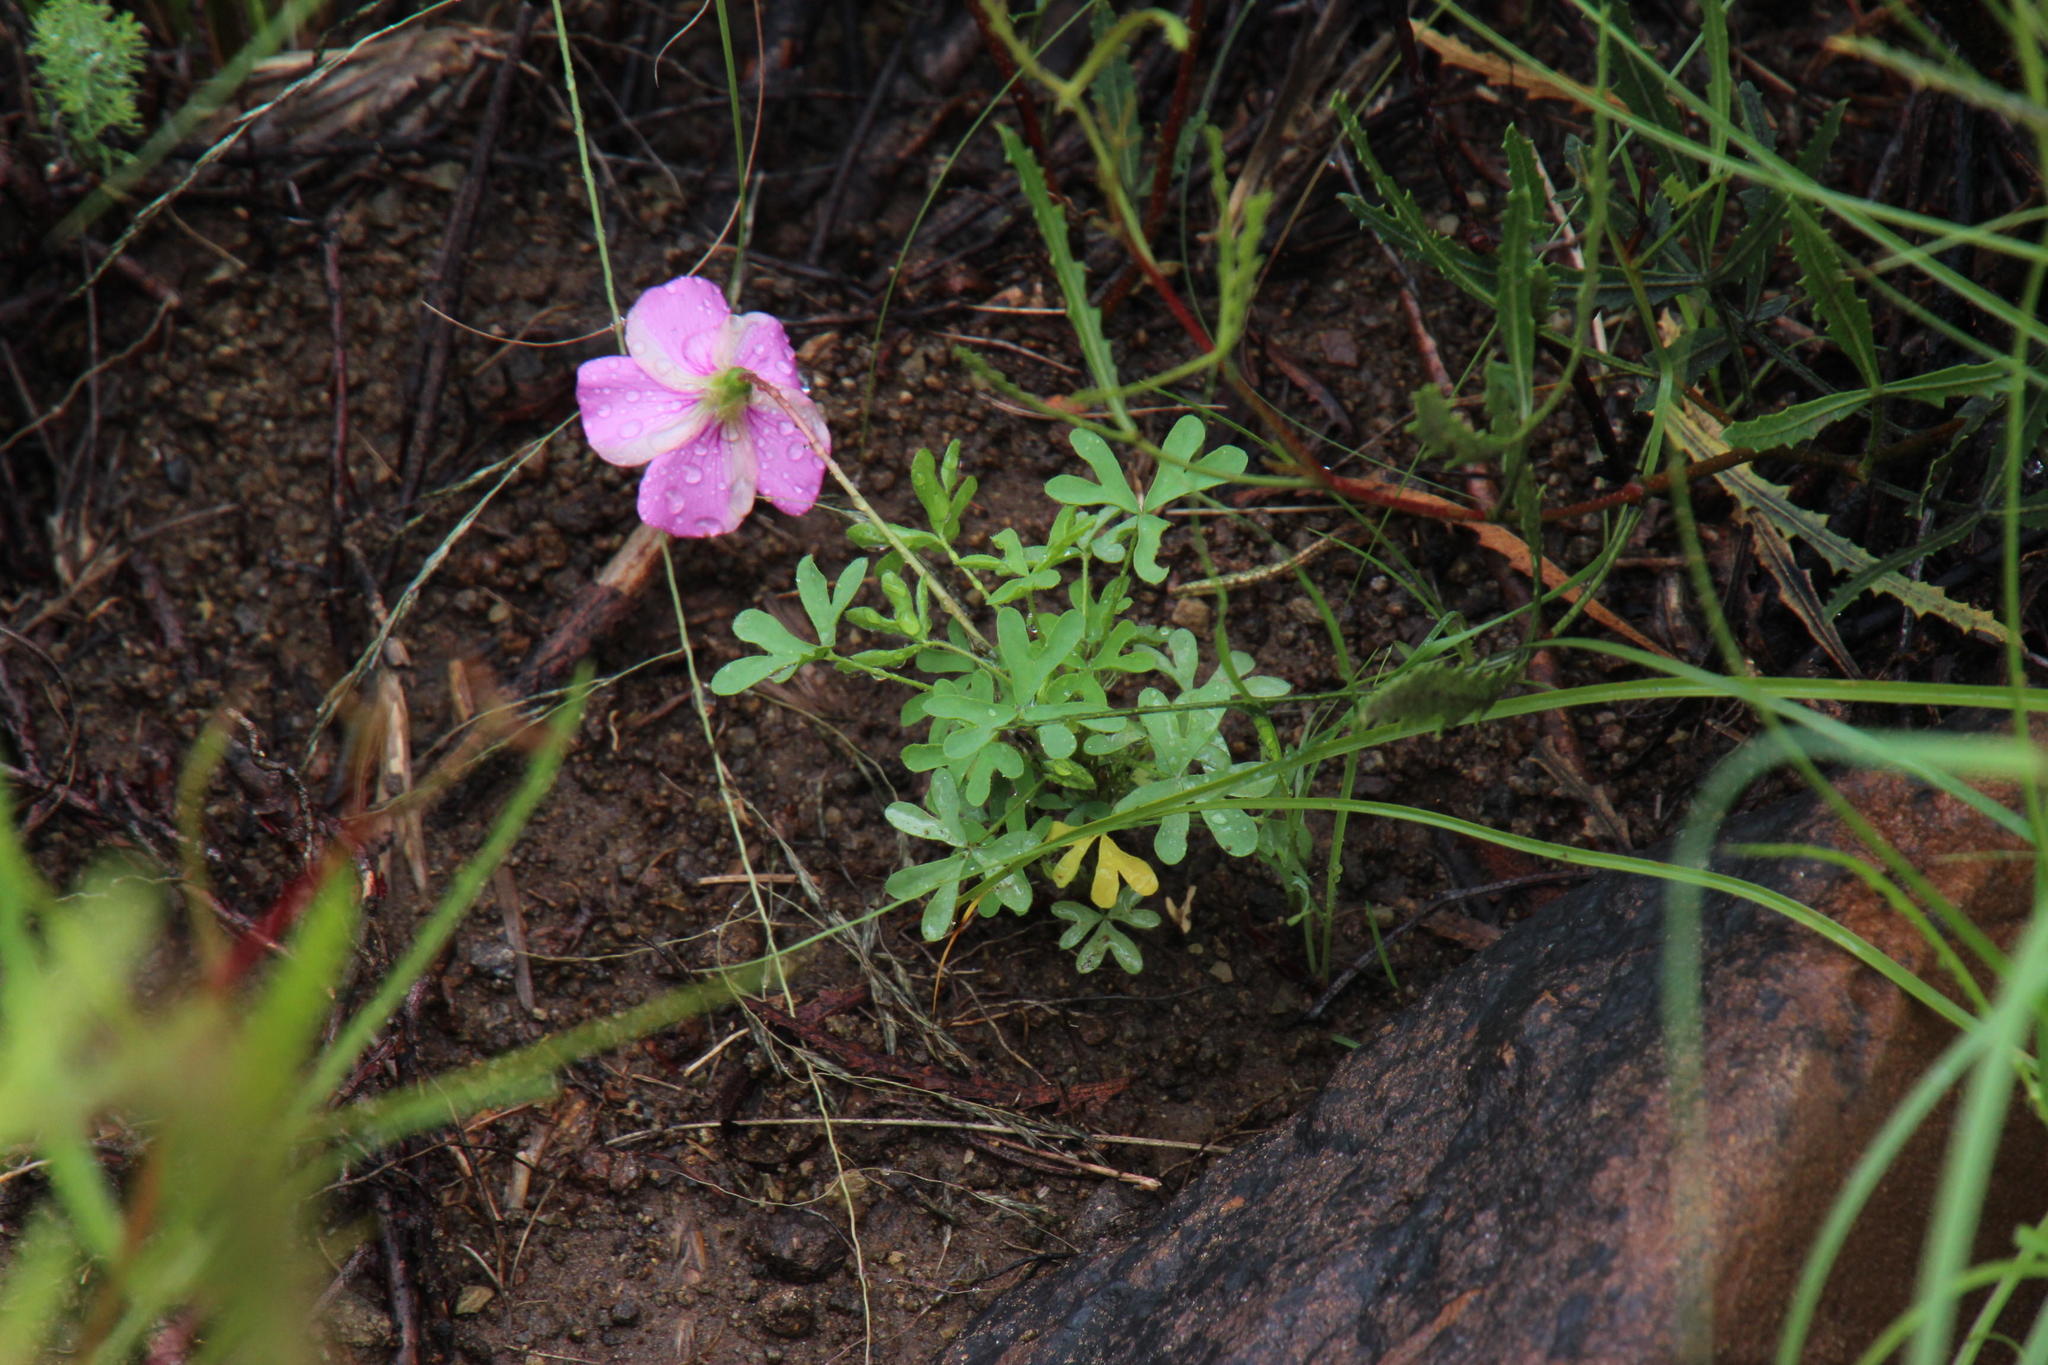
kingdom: Plantae
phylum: Tracheophyta
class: Magnoliopsida
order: Oxalidales
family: Oxalidaceae
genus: Oxalis
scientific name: Oxalis bifurca
